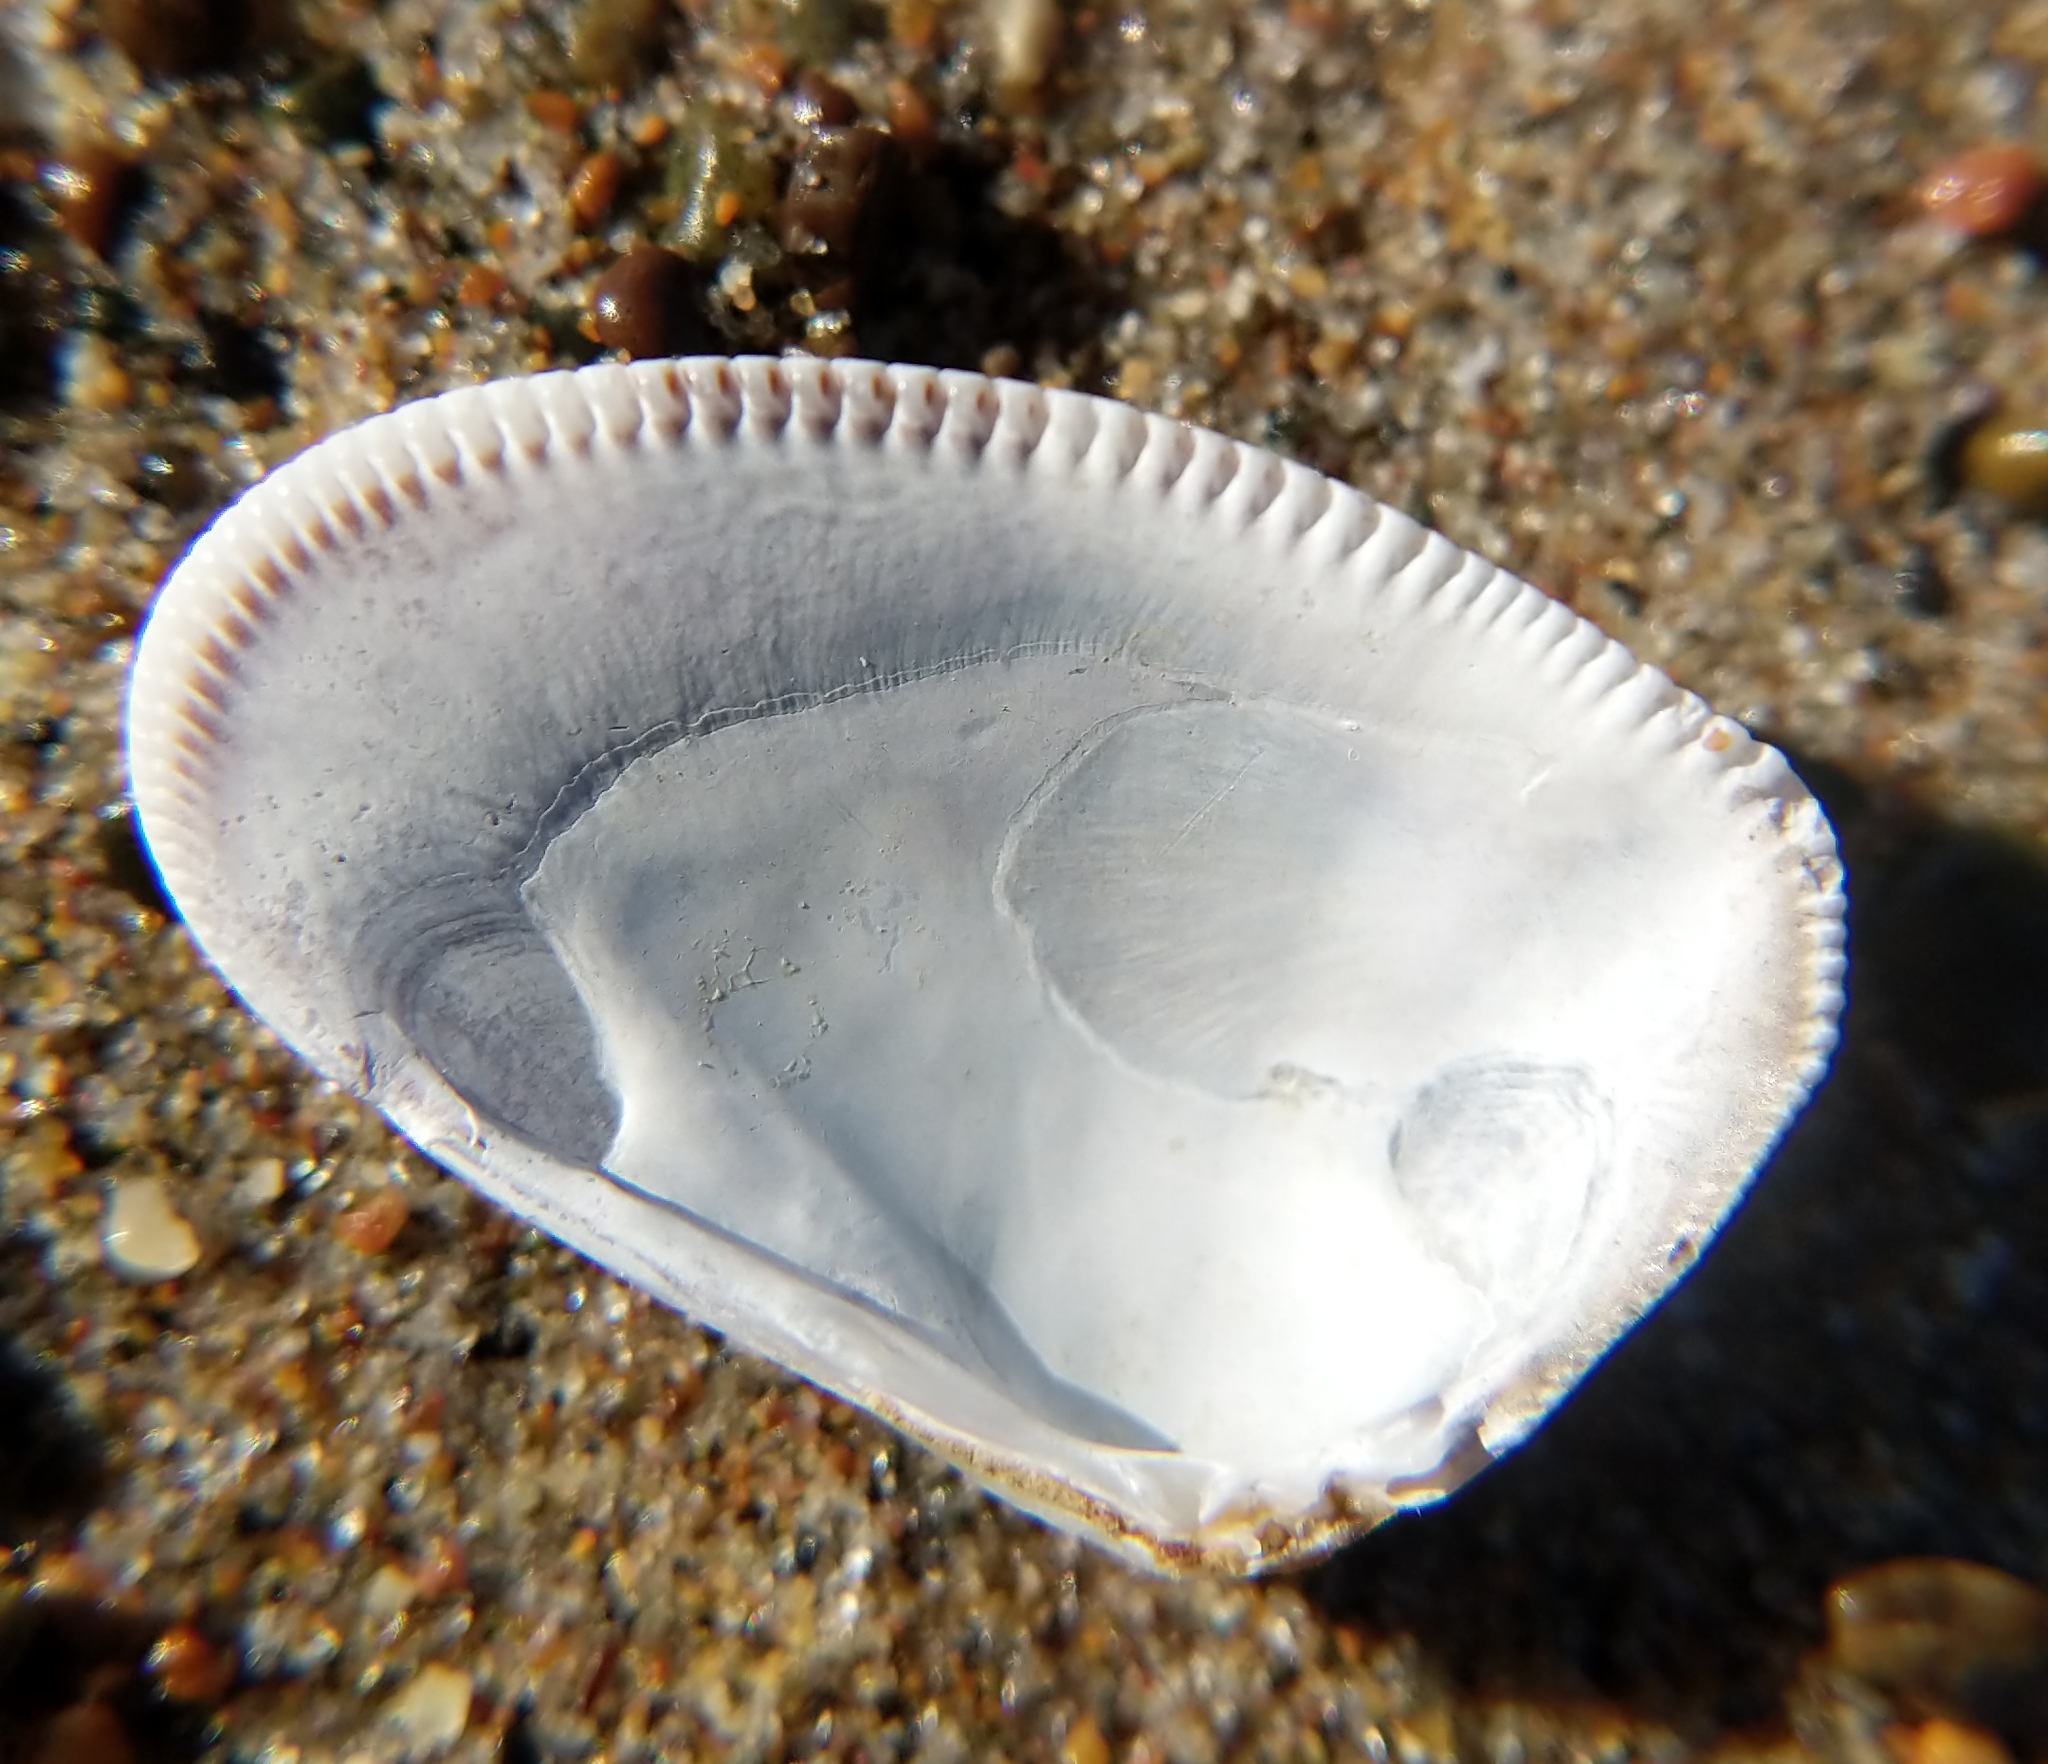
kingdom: Animalia
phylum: Mollusca
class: Bivalvia
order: Cardiida
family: Donacidae
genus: Donax
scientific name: Donax gouldii
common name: Gould beanclam
